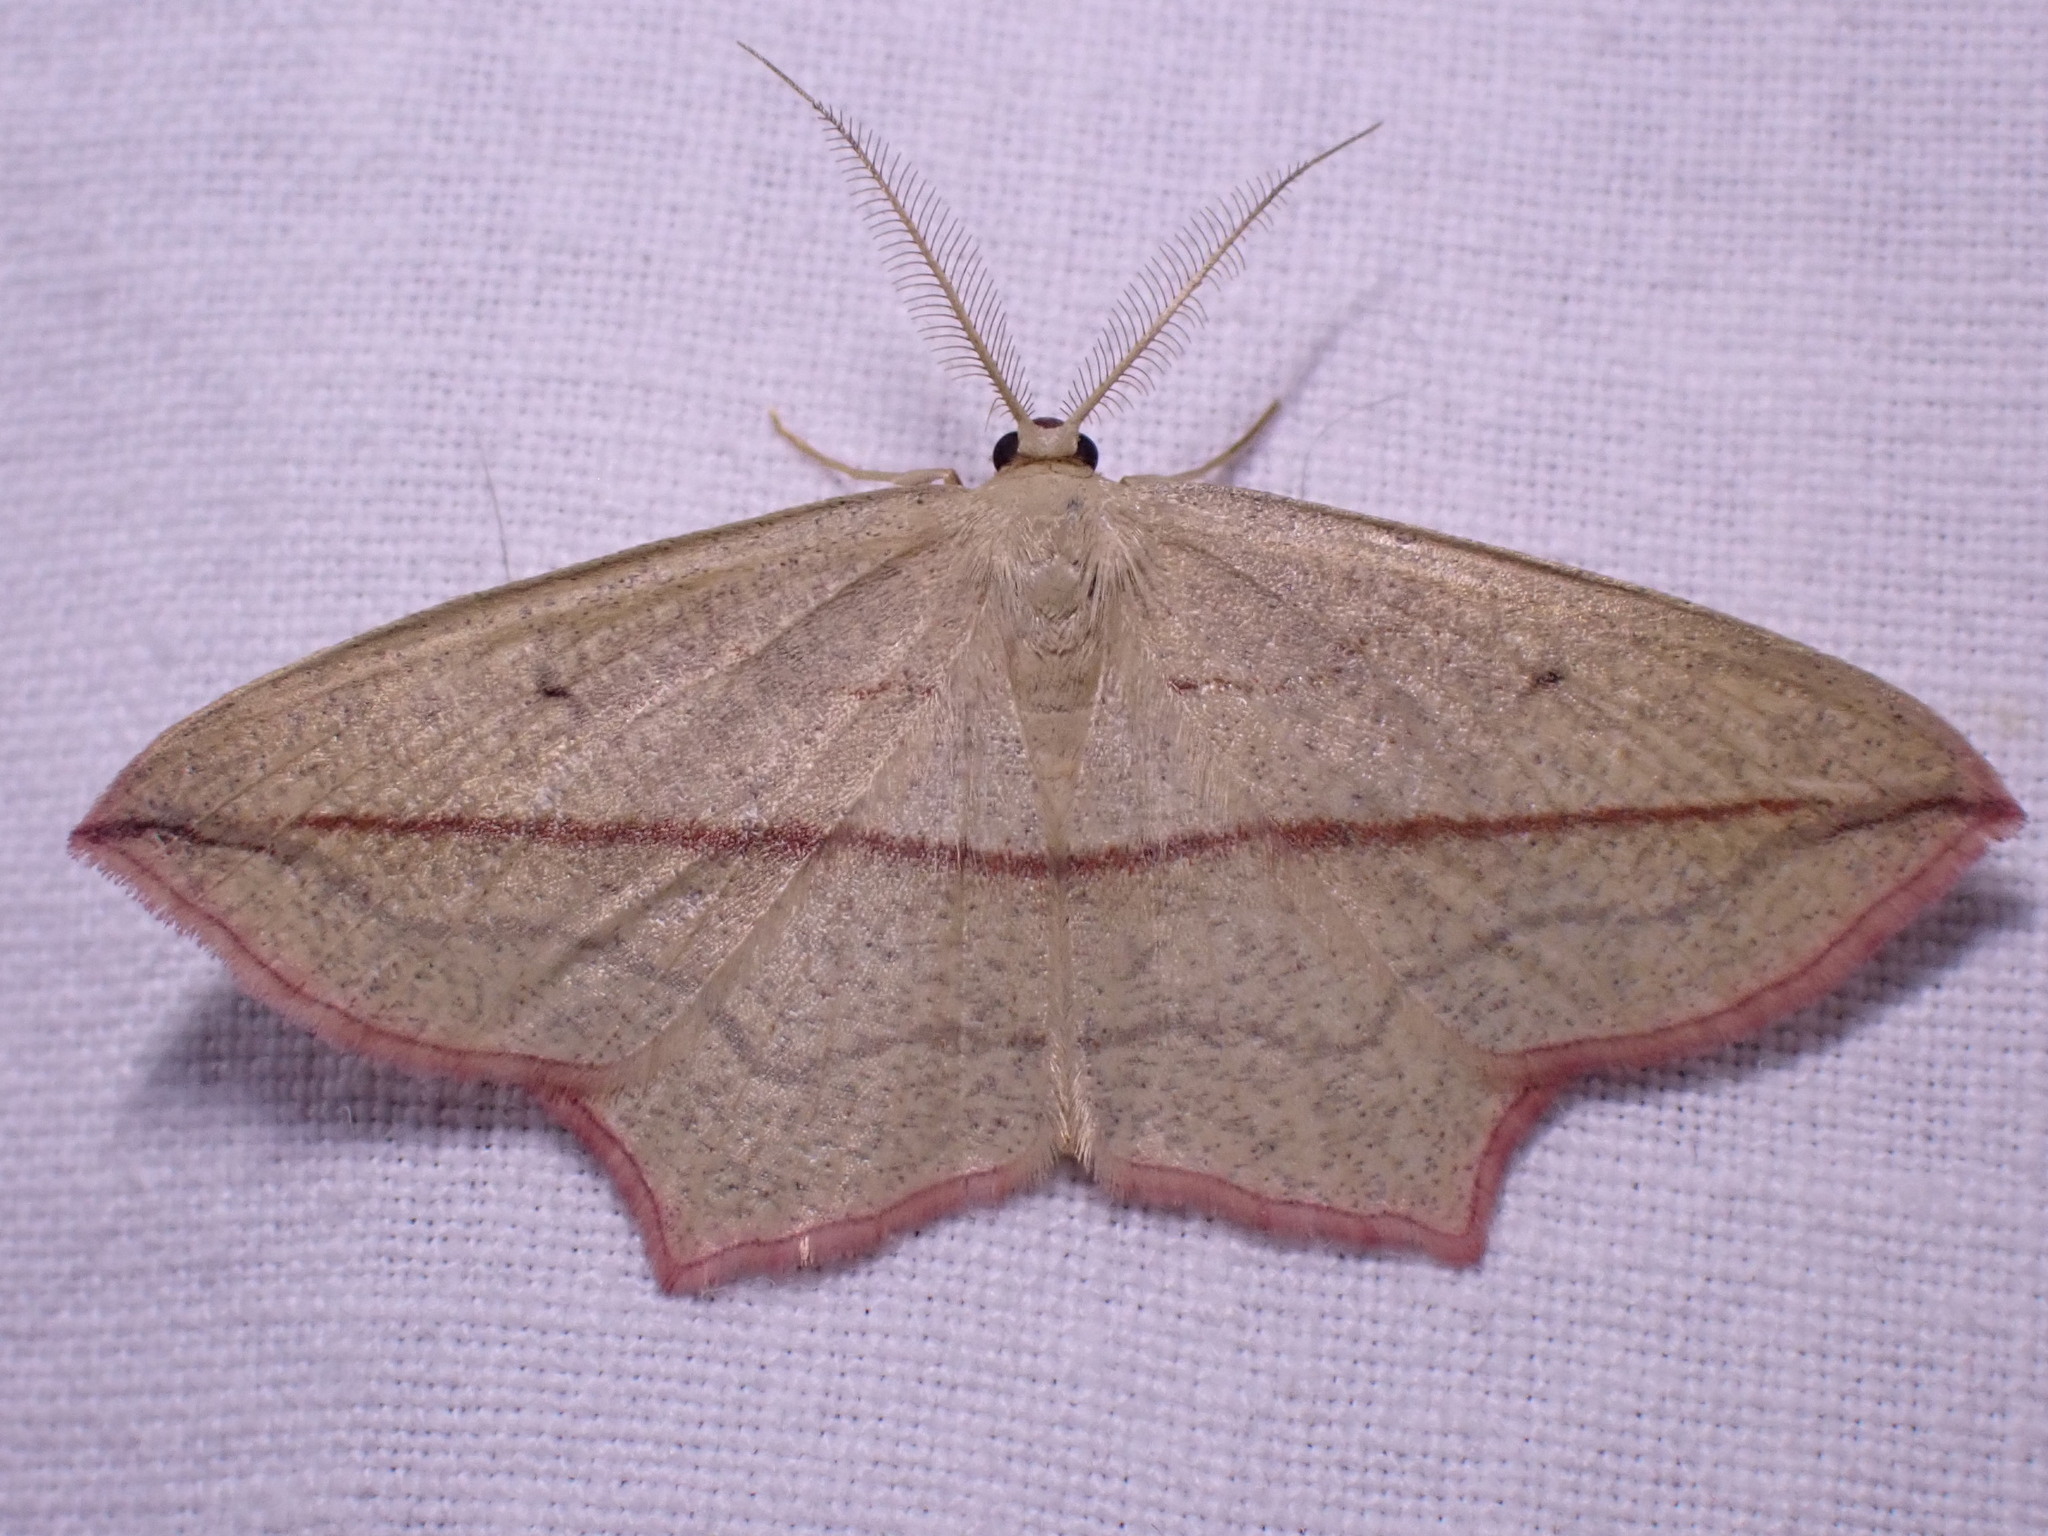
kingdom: Animalia
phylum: Arthropoda
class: Insecta
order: Lepidoptera
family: Geometridae
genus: Timandra
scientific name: Timandra comae
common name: Blood-vein
